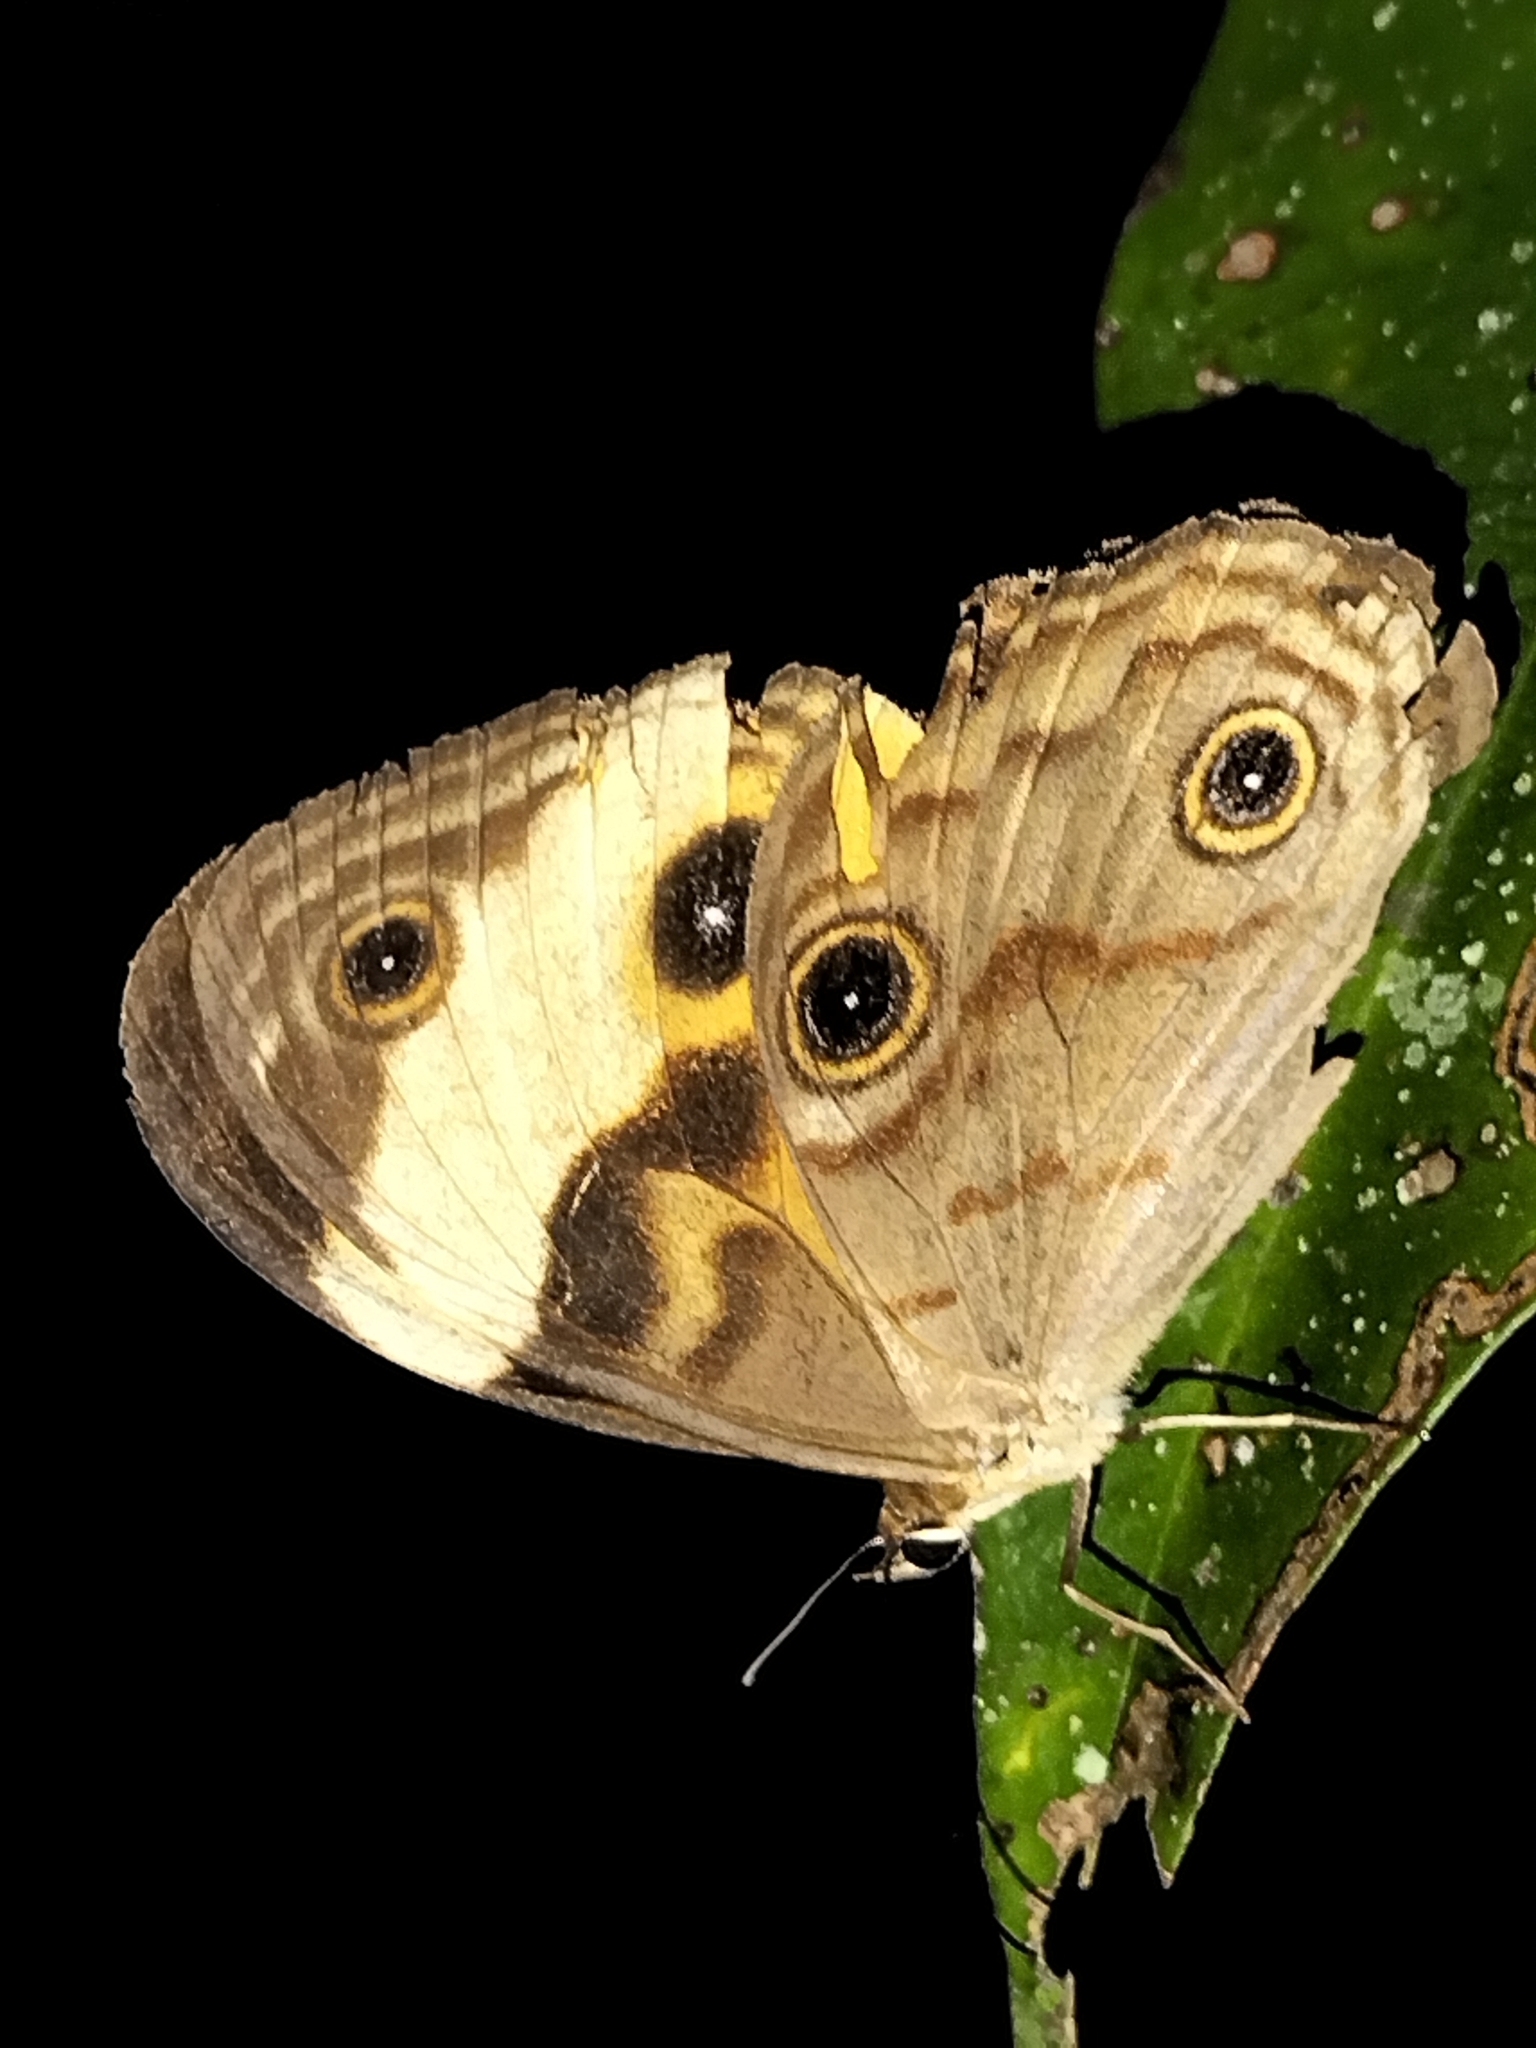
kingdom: Animalia
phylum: Arthropoda
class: Insecta
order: Lepidoptera
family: Nymphalidae
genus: Tisiphone
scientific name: Tisiphone helena
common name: Northern sword-grass brown
